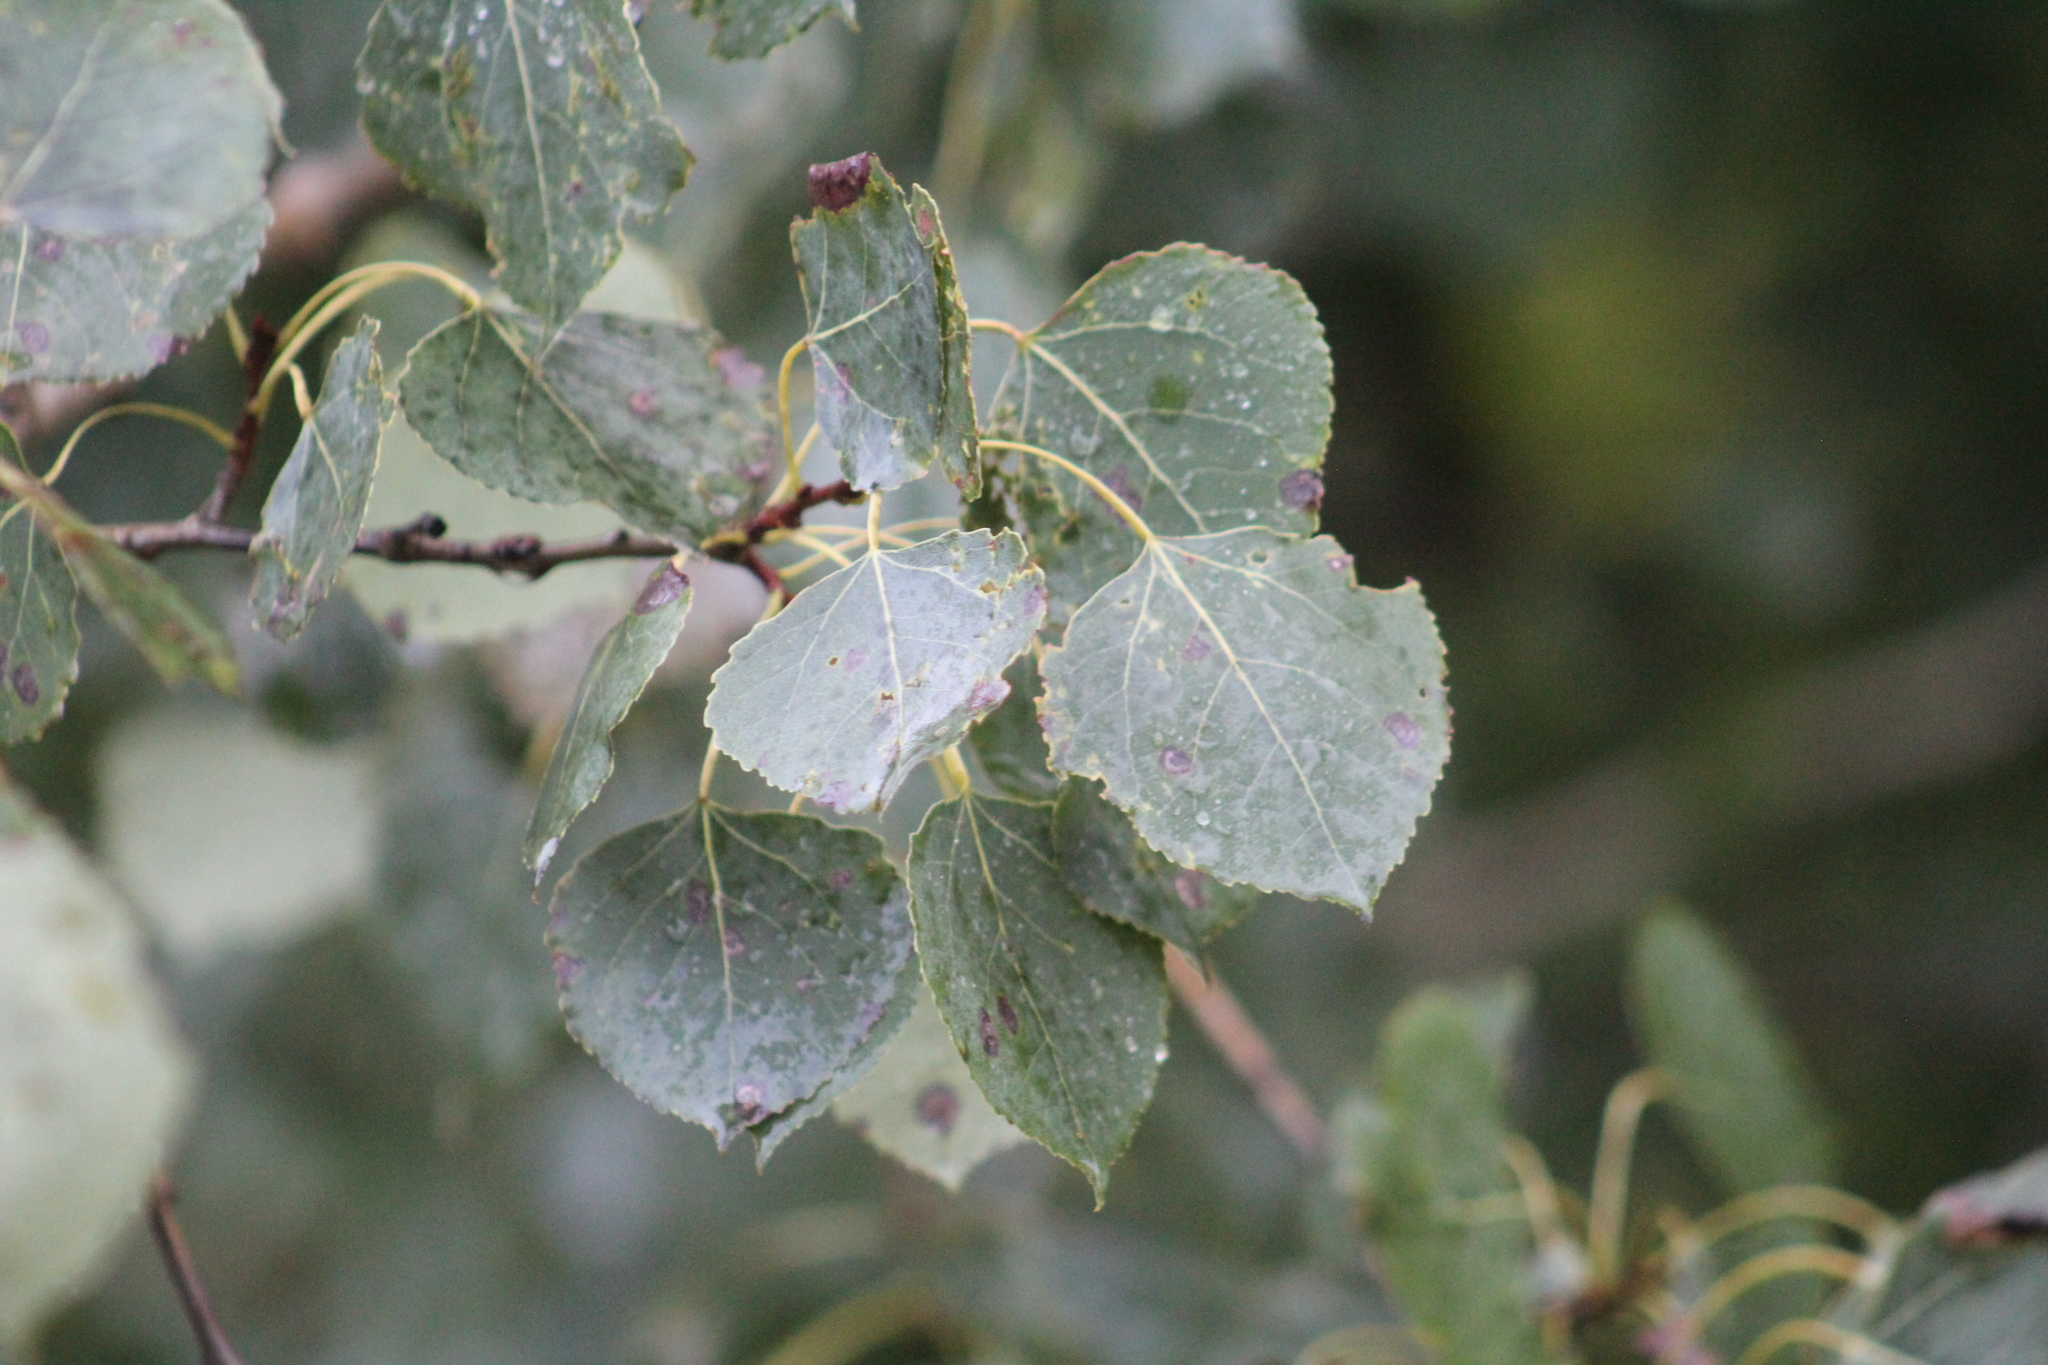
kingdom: Plantae
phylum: Tracheophyta
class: Magnoliopsida
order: Malpighiales
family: Salicaceae
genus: Populus
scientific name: Populus tremuloides
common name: Quaking aspen
